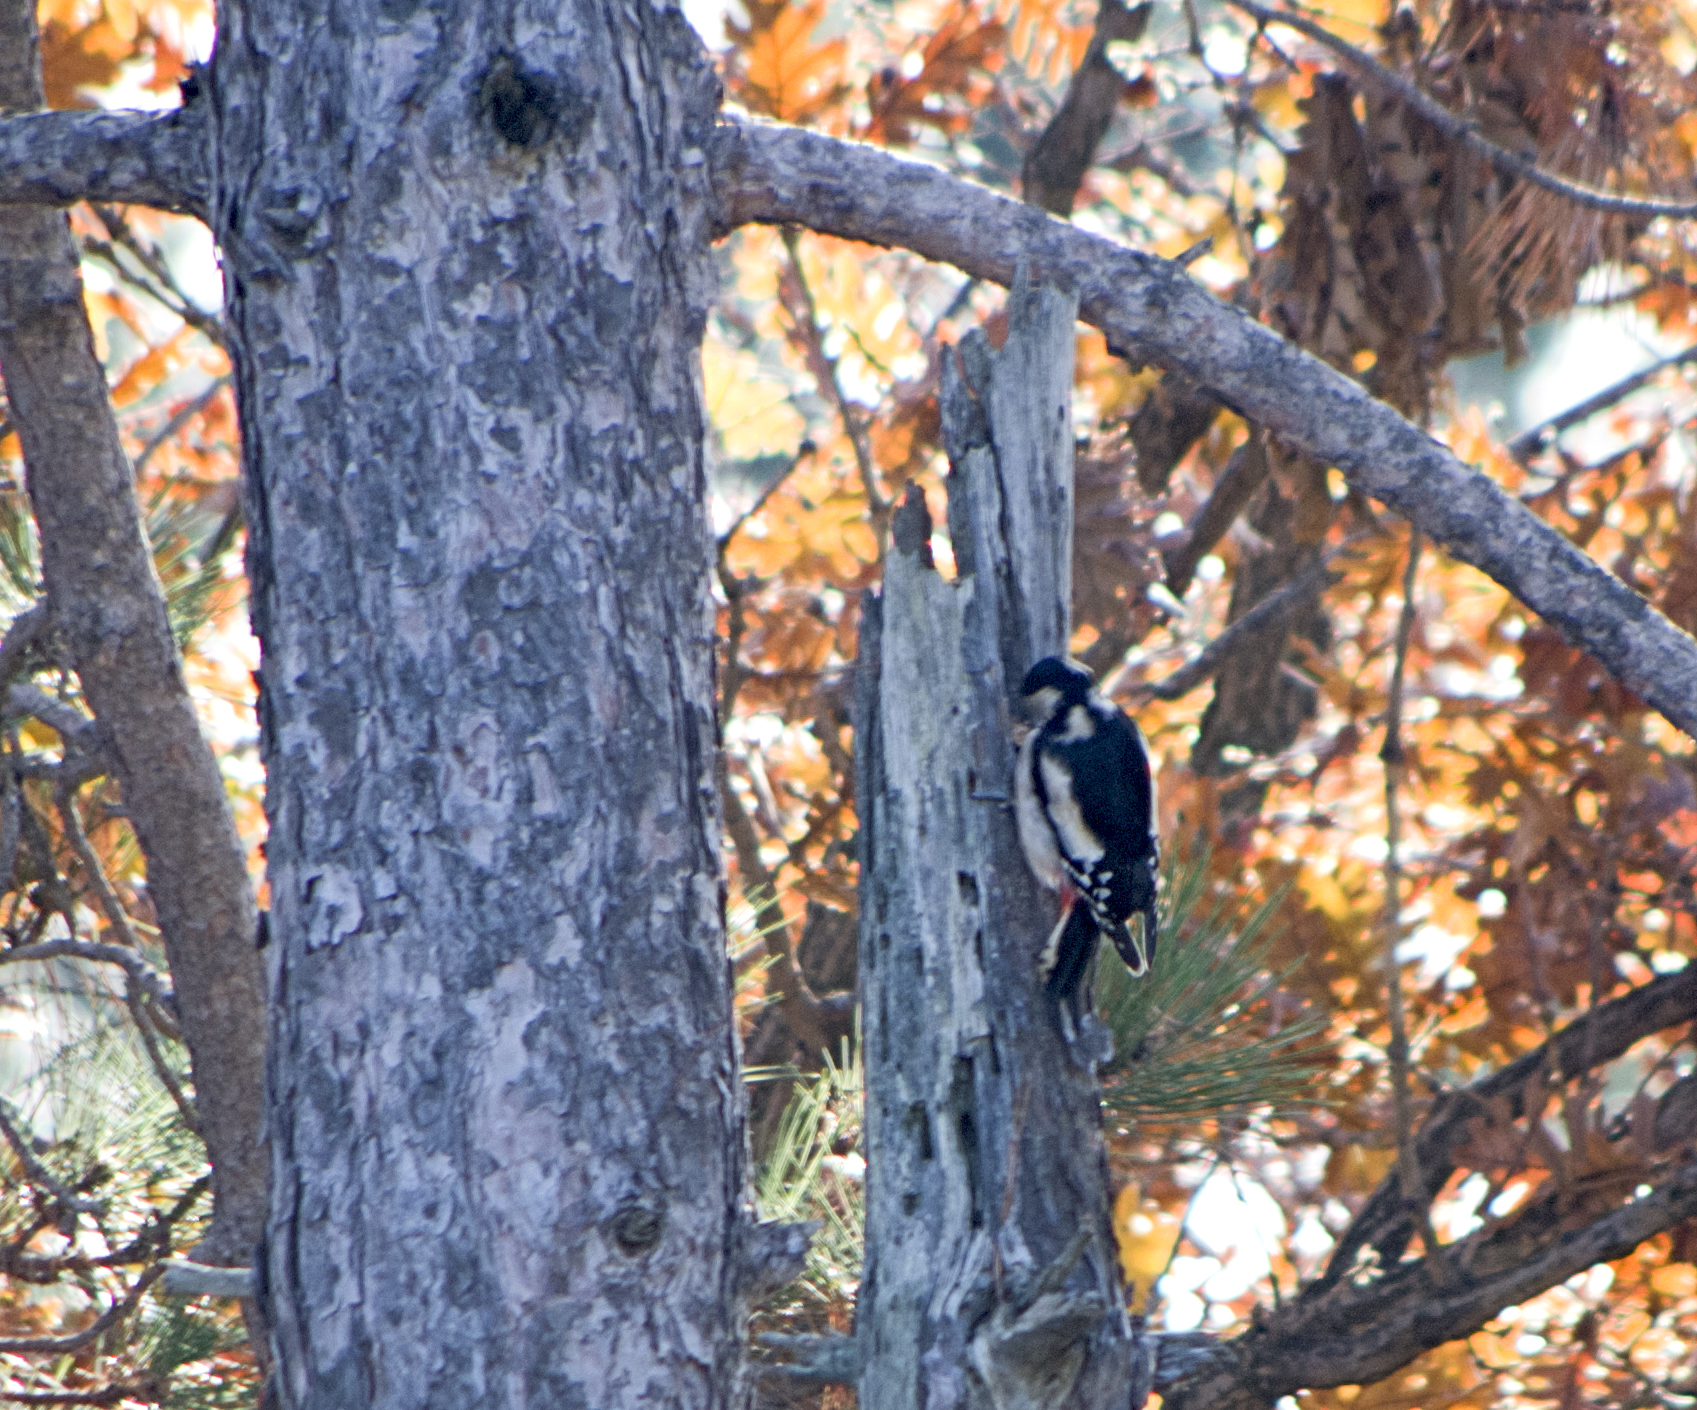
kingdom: Animalia
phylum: Chordata
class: Aves
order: Piciformes
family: Picidae
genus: Dendrocopos
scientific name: Dendrocopos major
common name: Great spotted woodpecker
